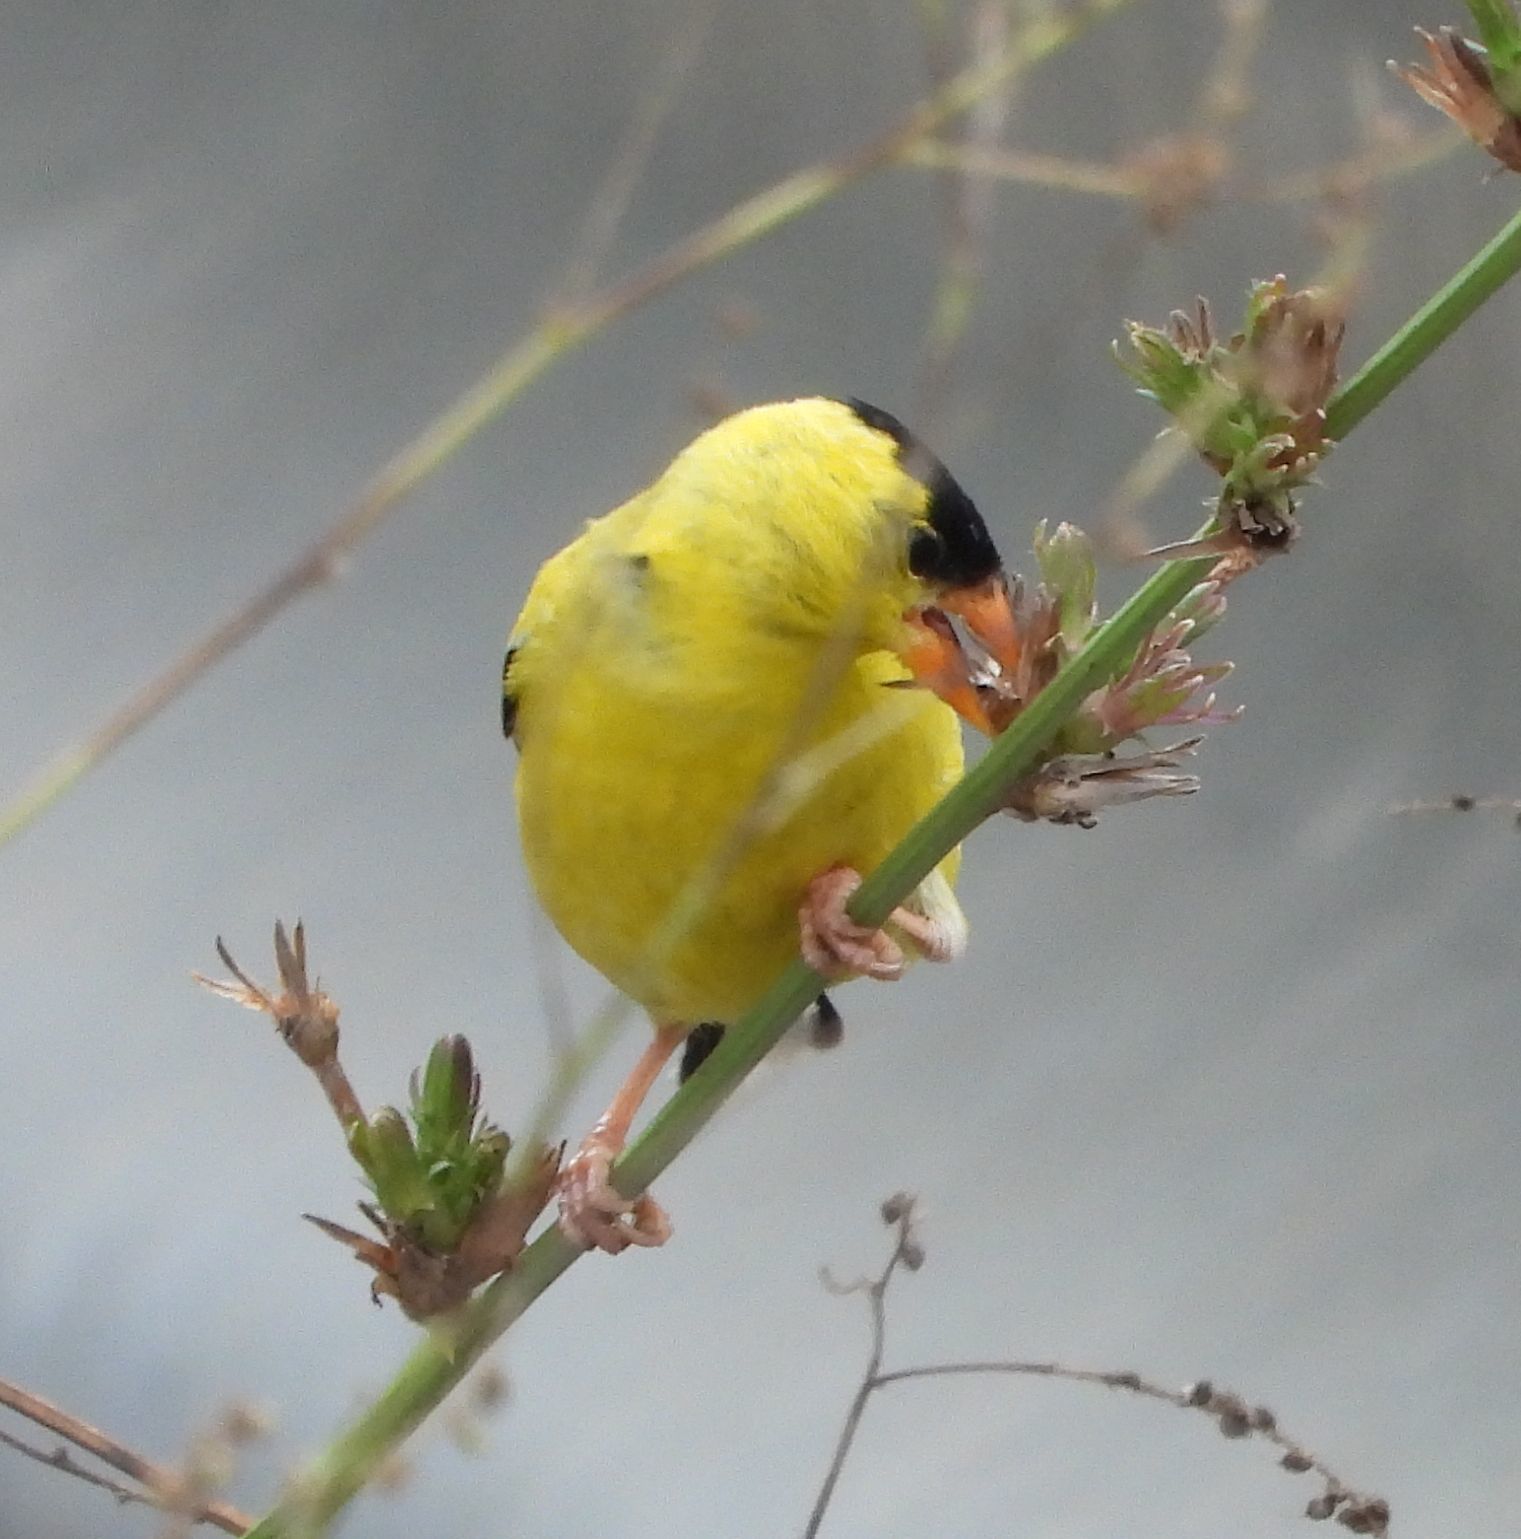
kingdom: Animalia
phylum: Chordata
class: Aves
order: Passeriformes
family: Fringillidae
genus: Spinus
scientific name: Spinus tristis
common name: American goldfinch
